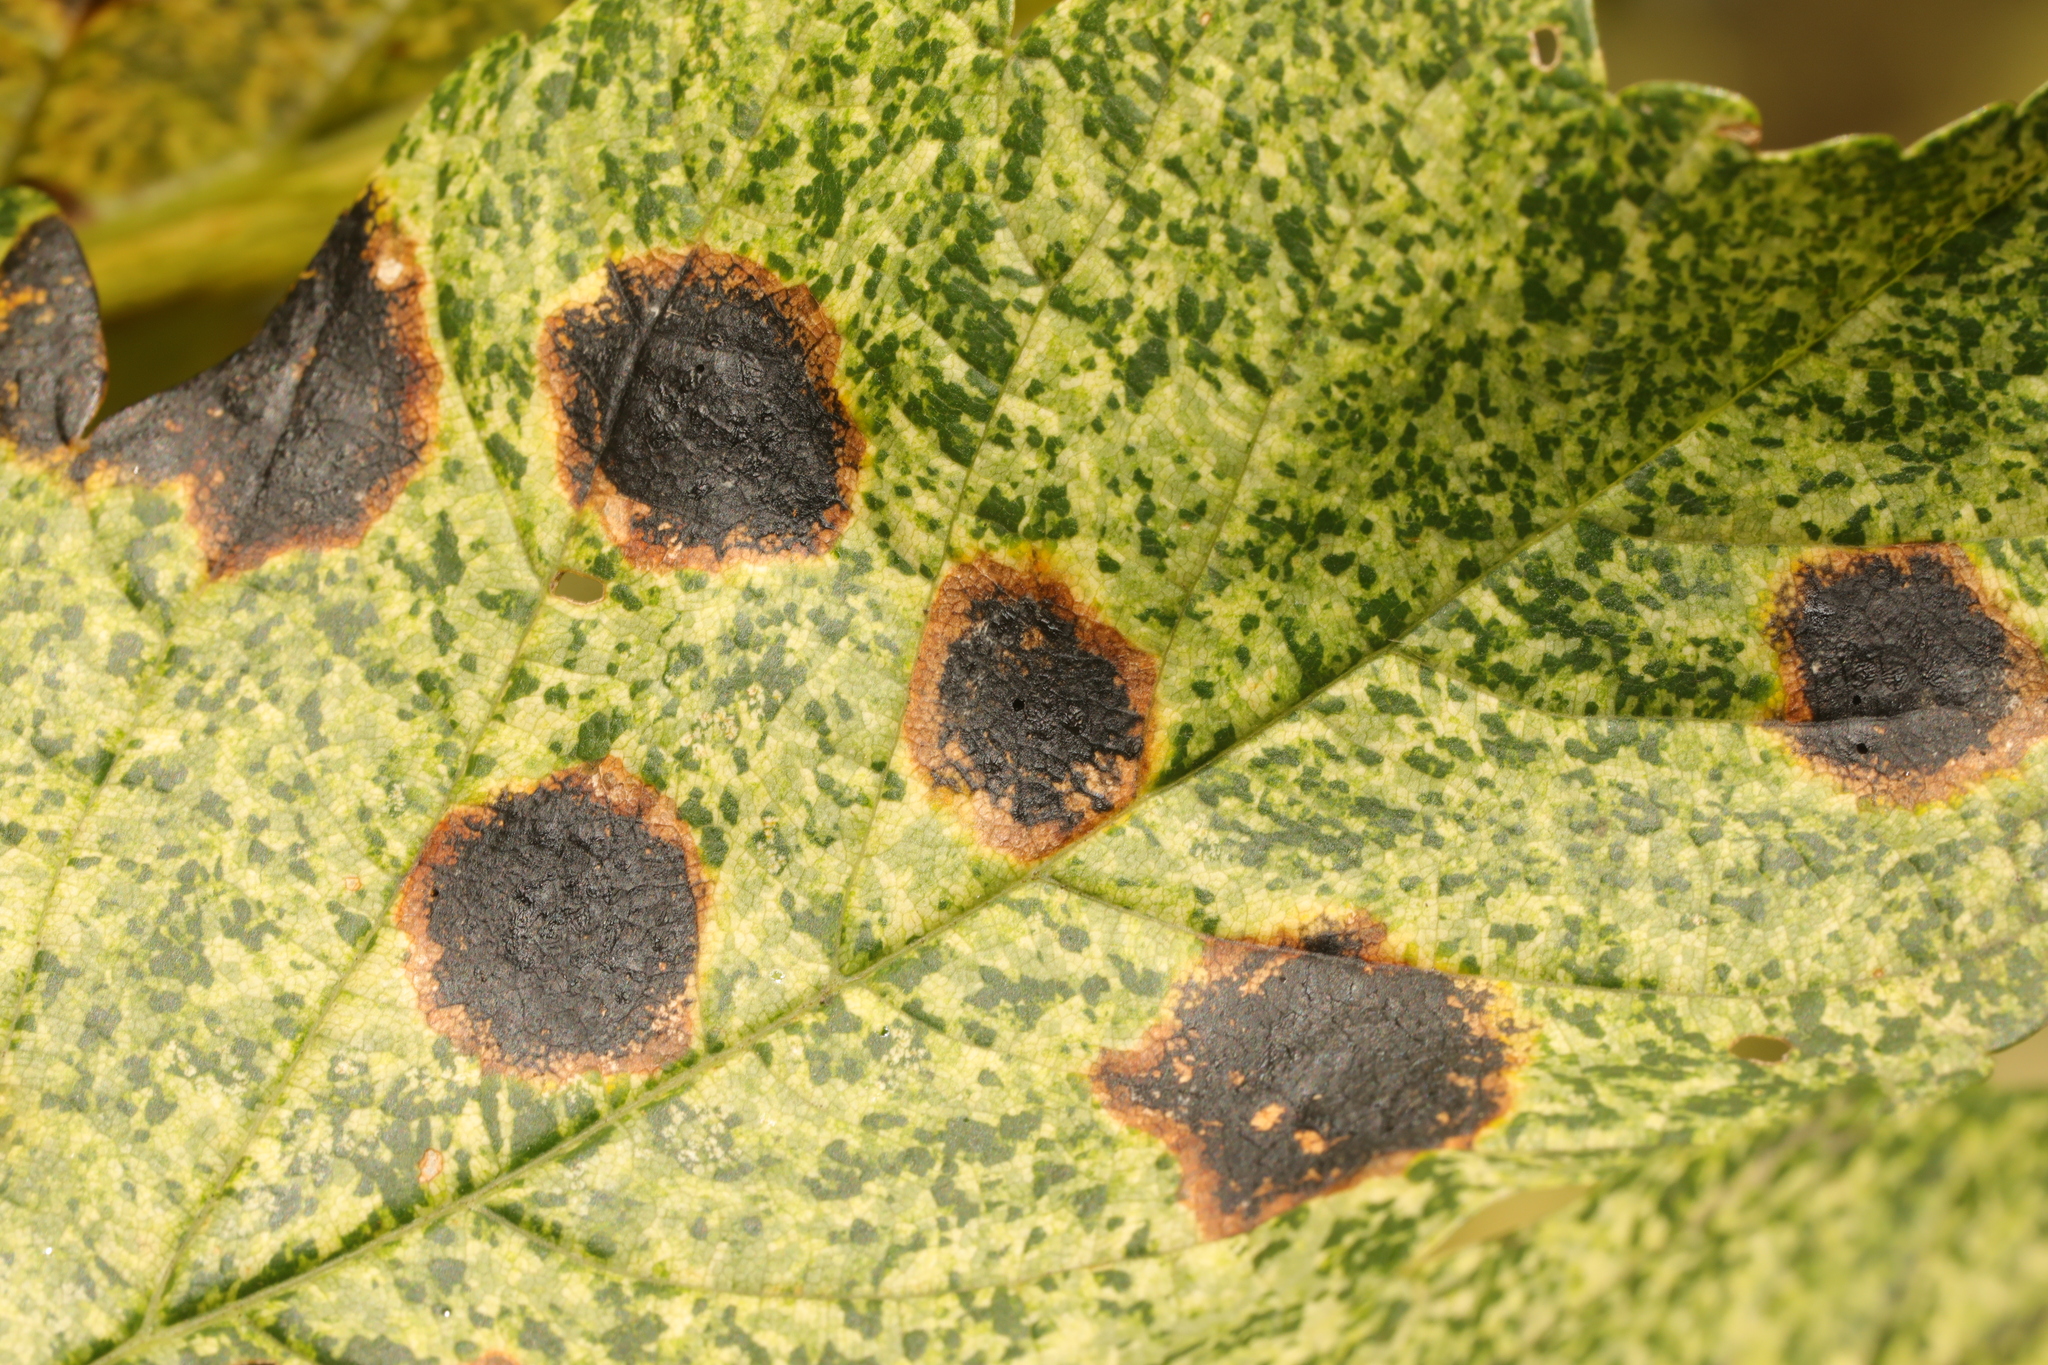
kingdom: Fungi
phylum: Ascomycota
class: Leotiomycetes
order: Rhytismatales
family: Rhytismataceae
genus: Rhytisma
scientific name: Rhytisma acerinum
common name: European tar spot
